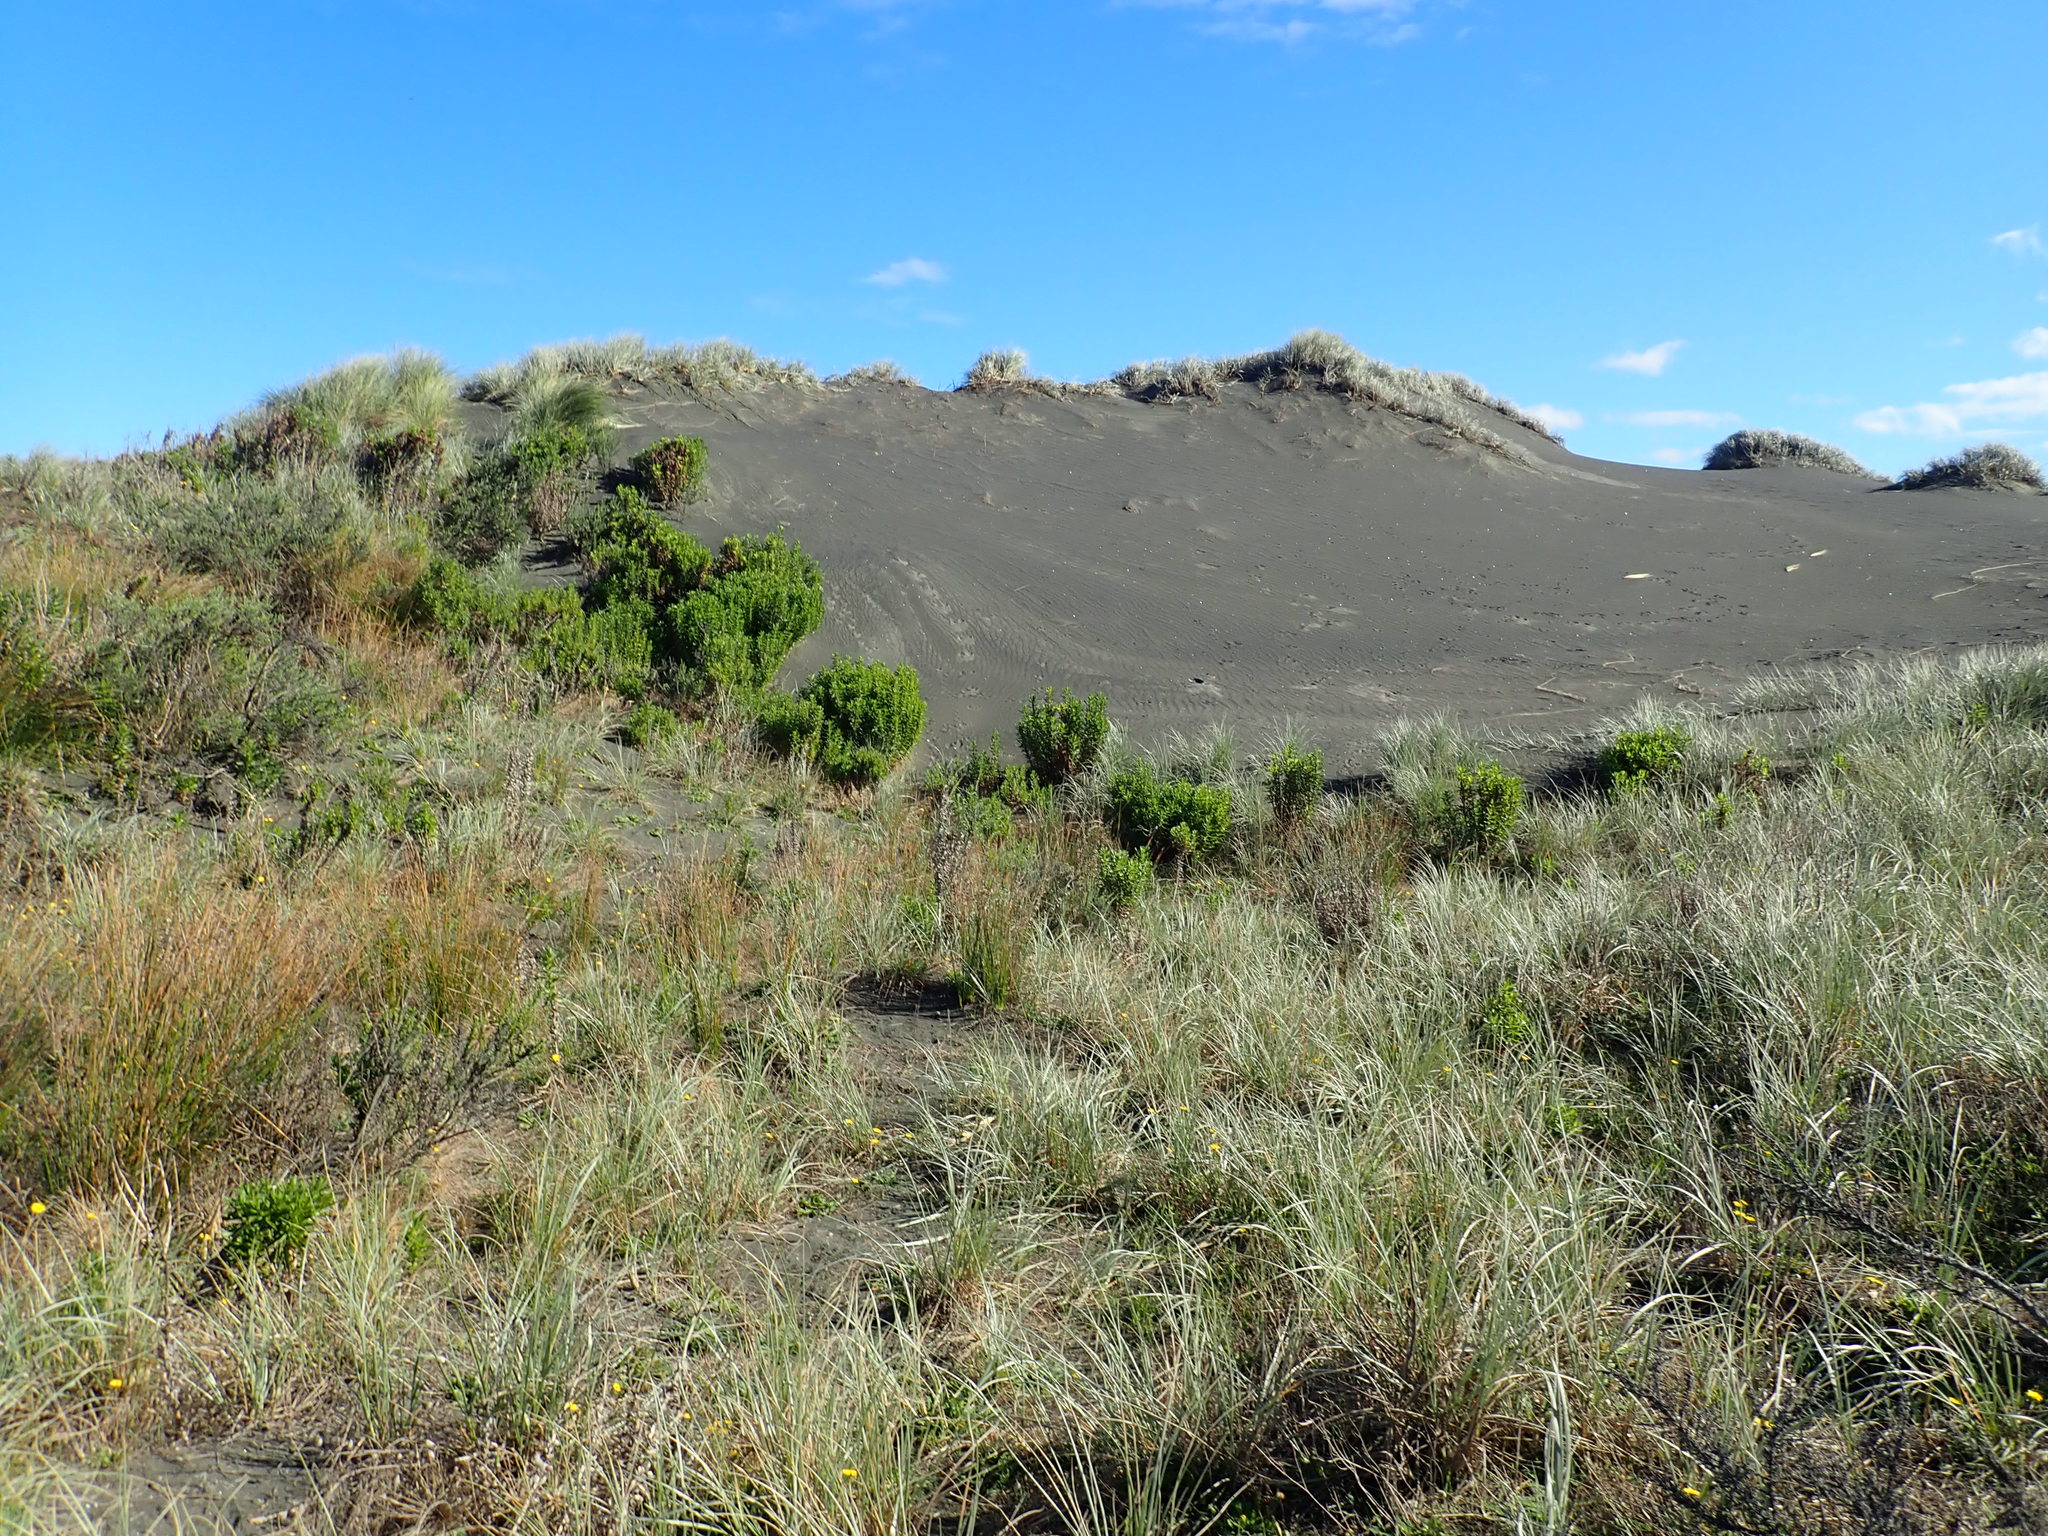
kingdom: Plantae
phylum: Tracheophyta
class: Magnoliopsida
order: Asterales
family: Asteraceae
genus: Senecio
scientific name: Senecio glastifolius
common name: Woad-leaved ragwort
